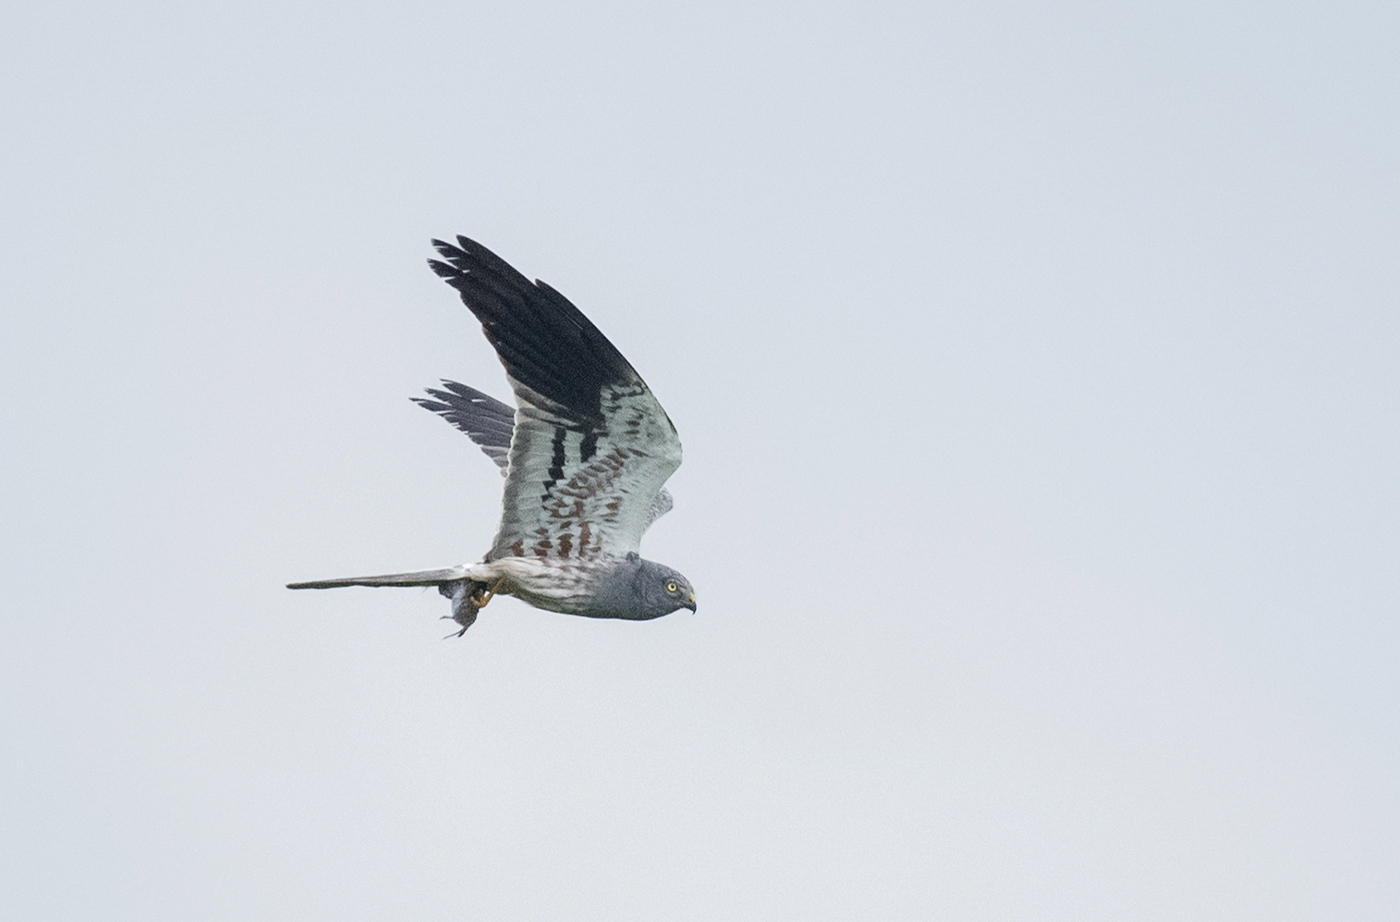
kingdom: Animalia
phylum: Chordata
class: Aves
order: Accipitriformes
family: Accipitridae
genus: Circus
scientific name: Circus pygargus
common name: Montagu's harrier
